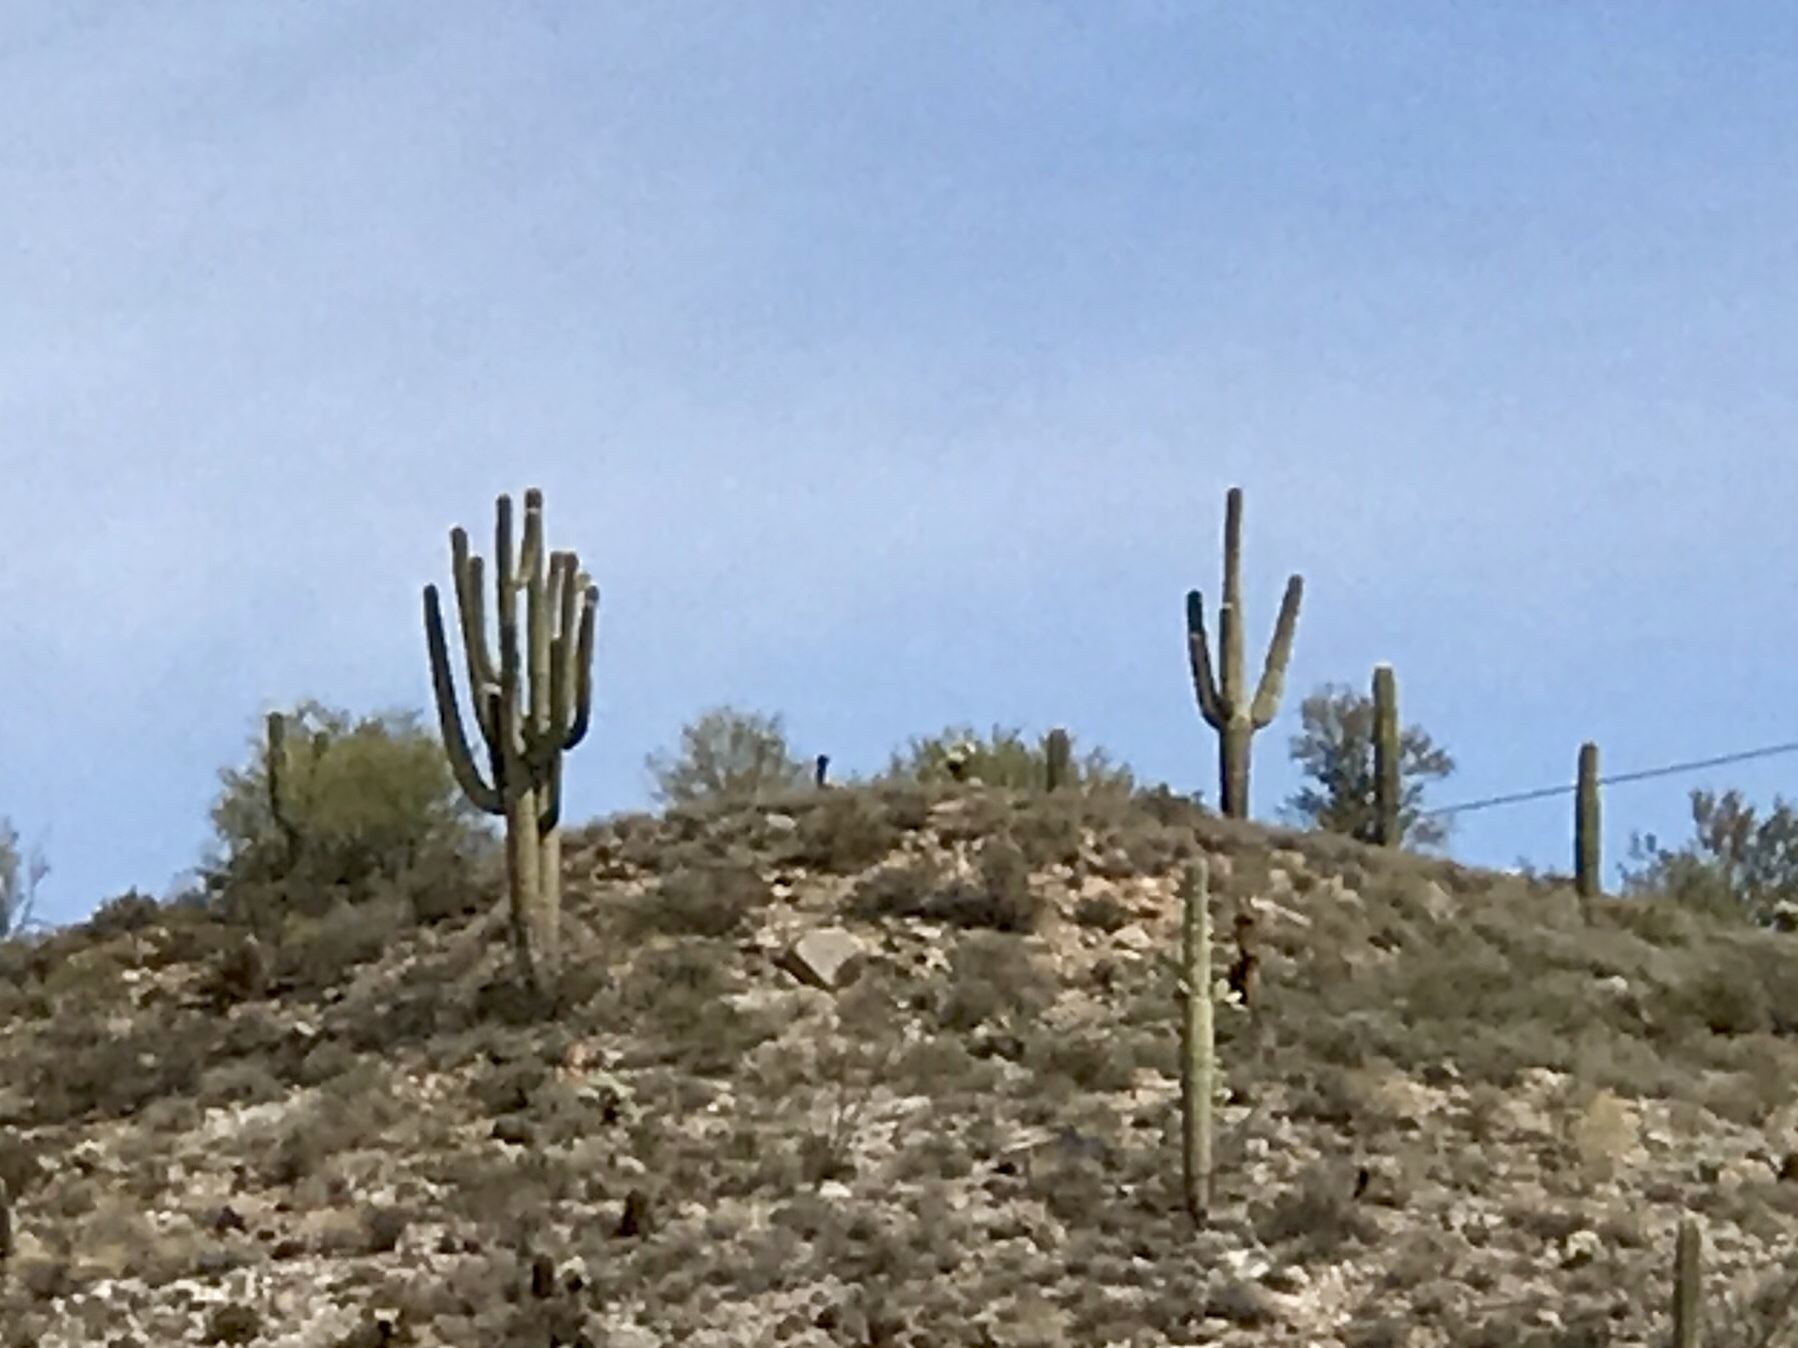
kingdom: Plantae
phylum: Tracheophyta
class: Magnoliopsida
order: Caryophyllales
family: Cactaceae
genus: Carnegiea
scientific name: Carnegiea gigantea
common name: Saguaro
